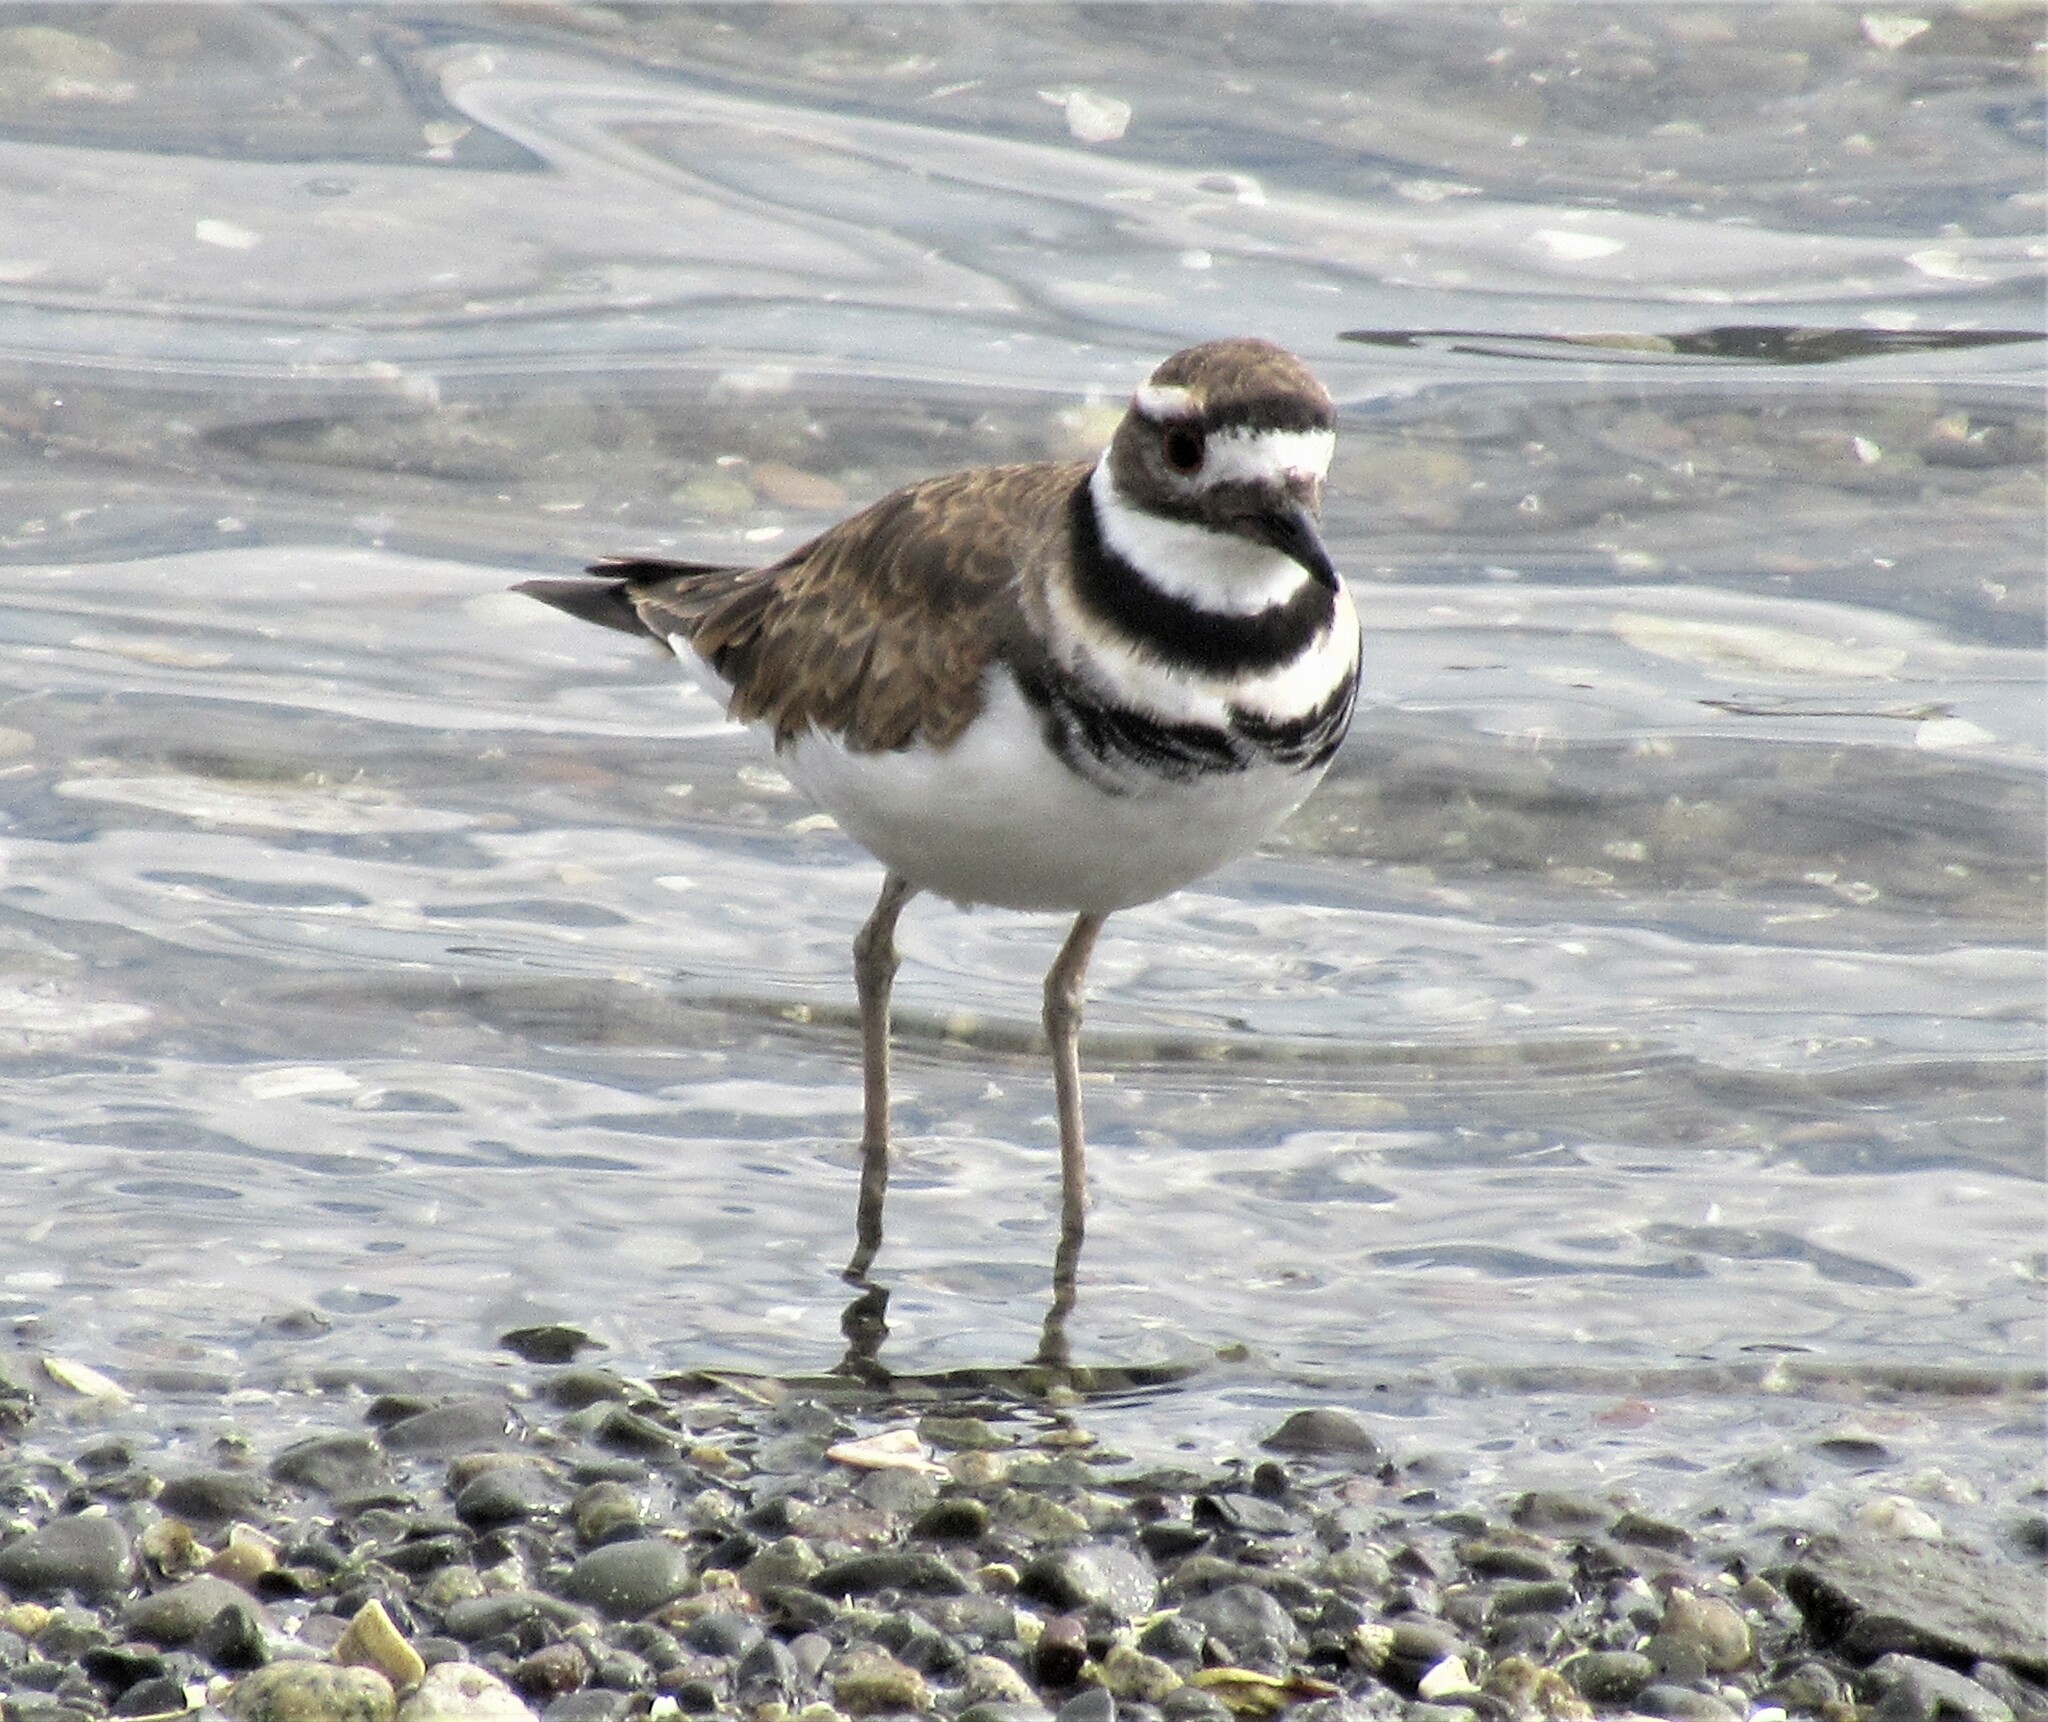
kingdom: Animalia
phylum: Chordata
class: Aves
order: Charadriiformes
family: Charadriidae
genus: Charadrius
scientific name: Charadrius vociferus
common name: Killdeer
